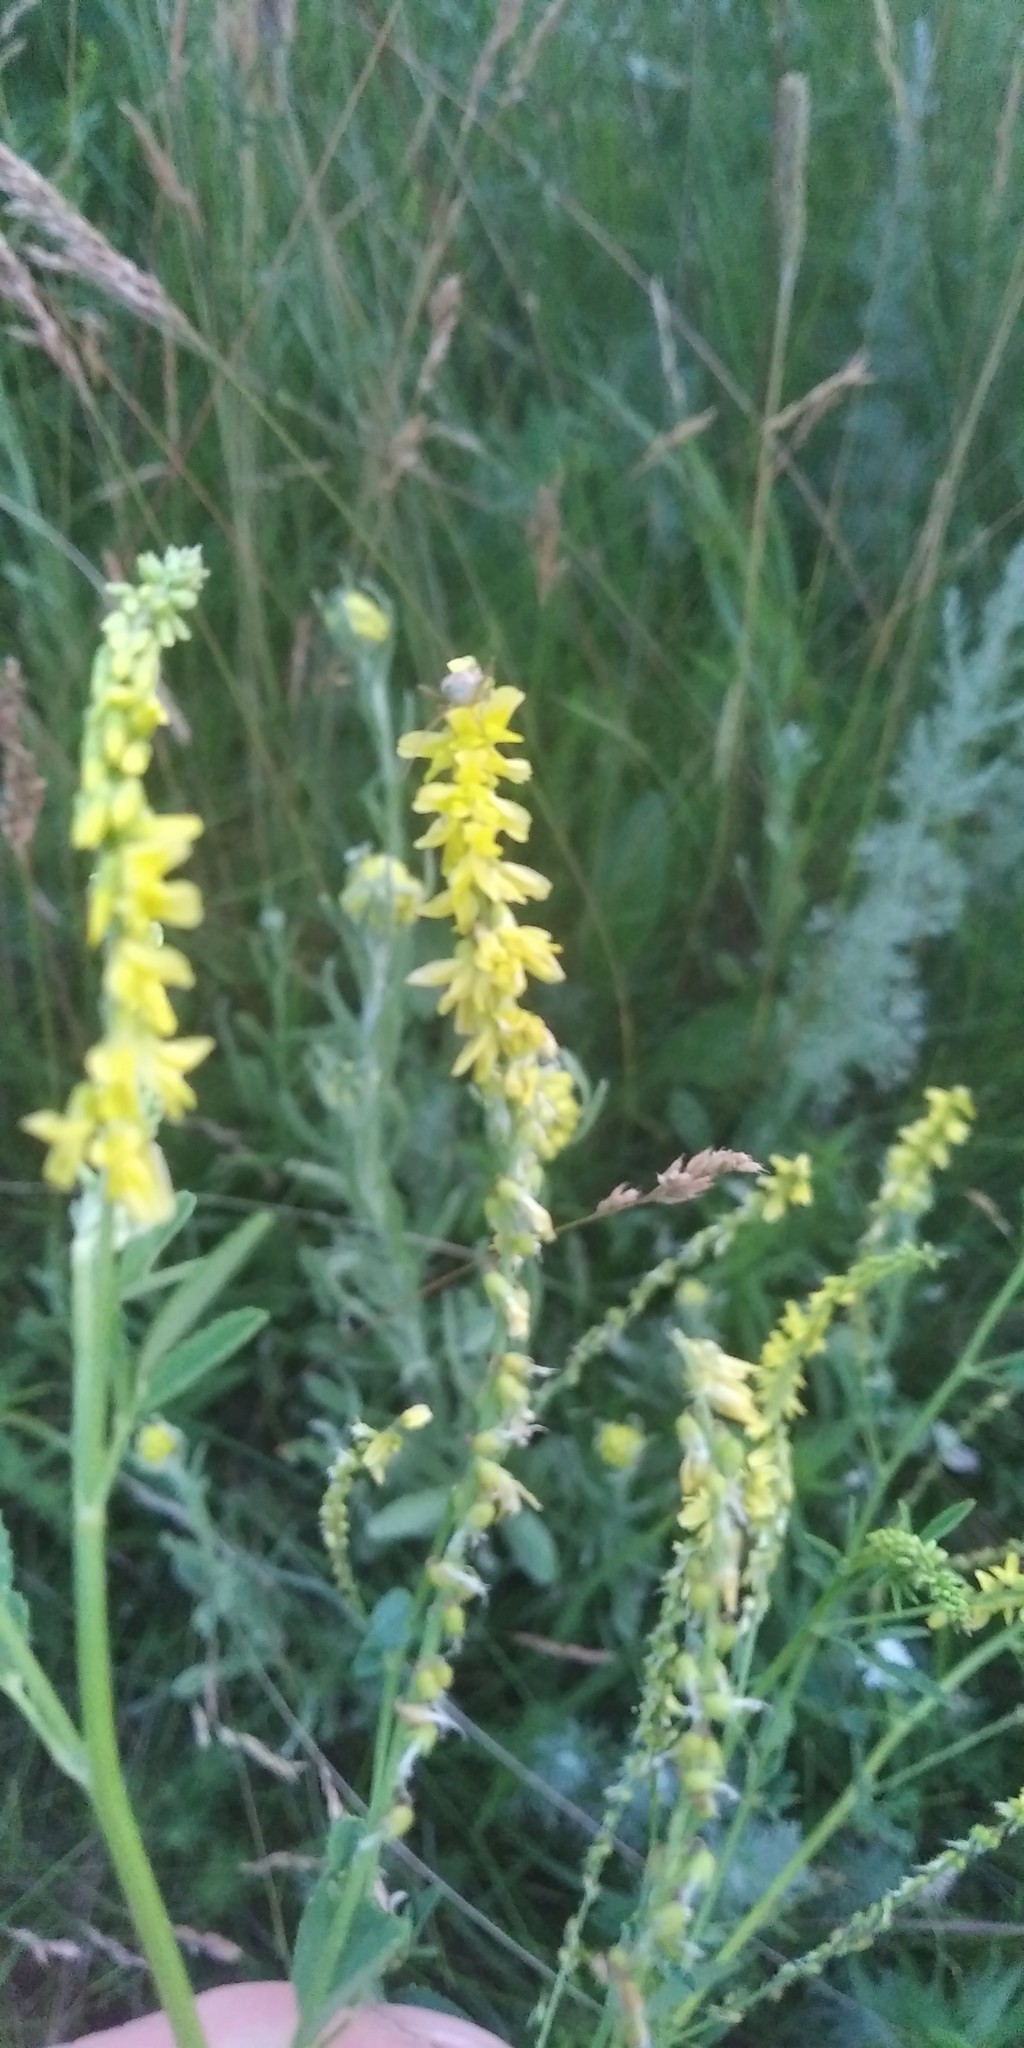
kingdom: Plantae
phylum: Tracheophyta
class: Magnoliopsida
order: Fabales
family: Fabaceae
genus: Melilotus
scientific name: Melilotus officinalis
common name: Sweetclover
